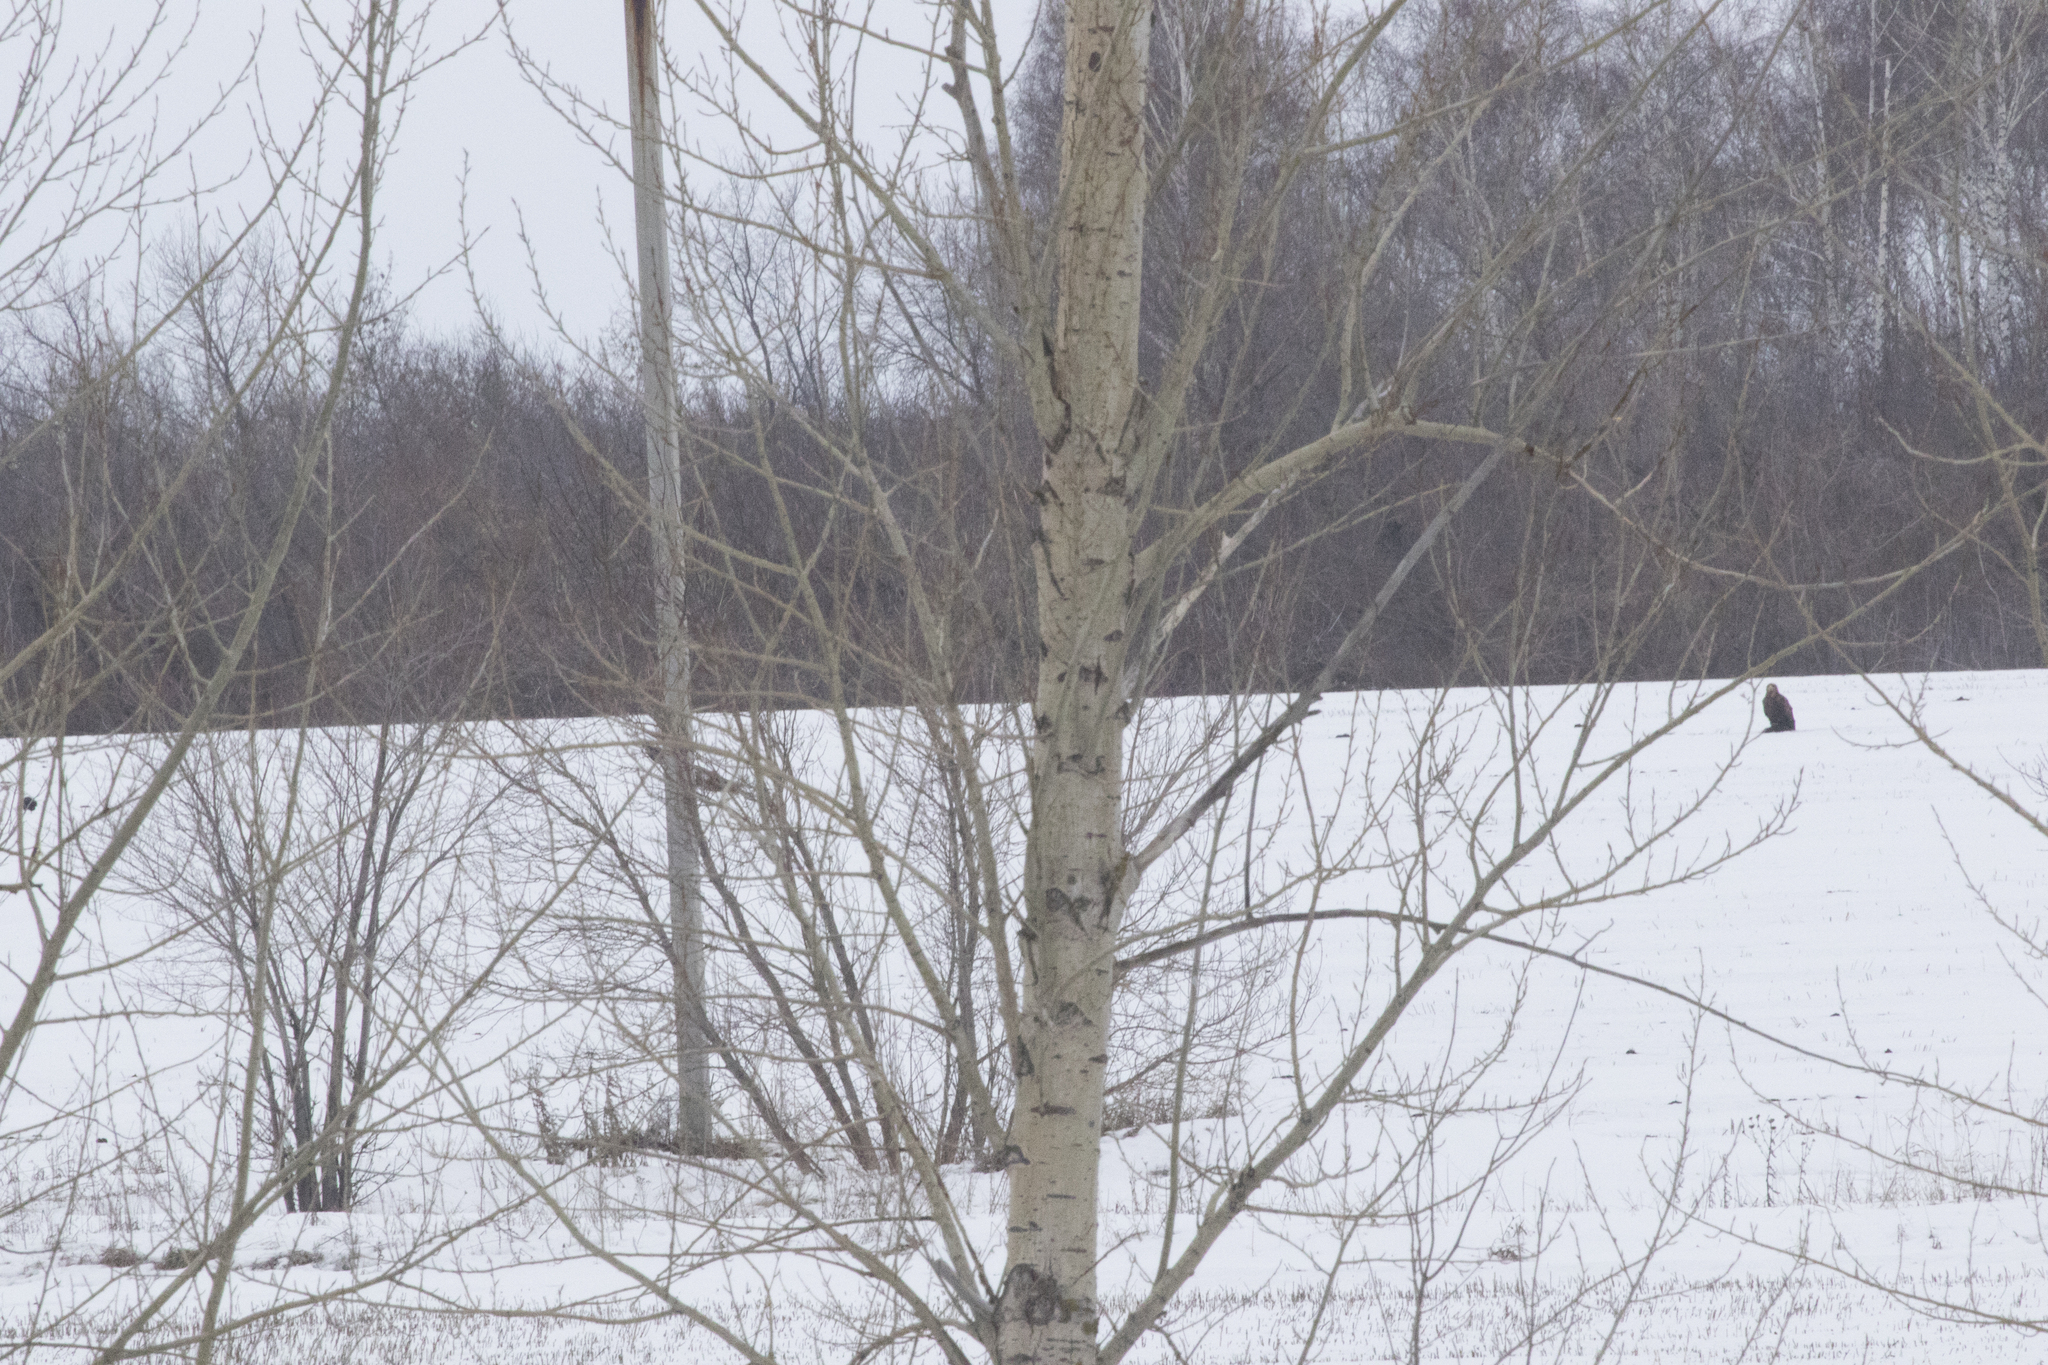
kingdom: Animalia
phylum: Chordata
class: Aves
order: Accipitriformes
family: Accipitridae
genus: Haliaeetus
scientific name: Haliaeetus albicilla
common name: White-tailed eagle
